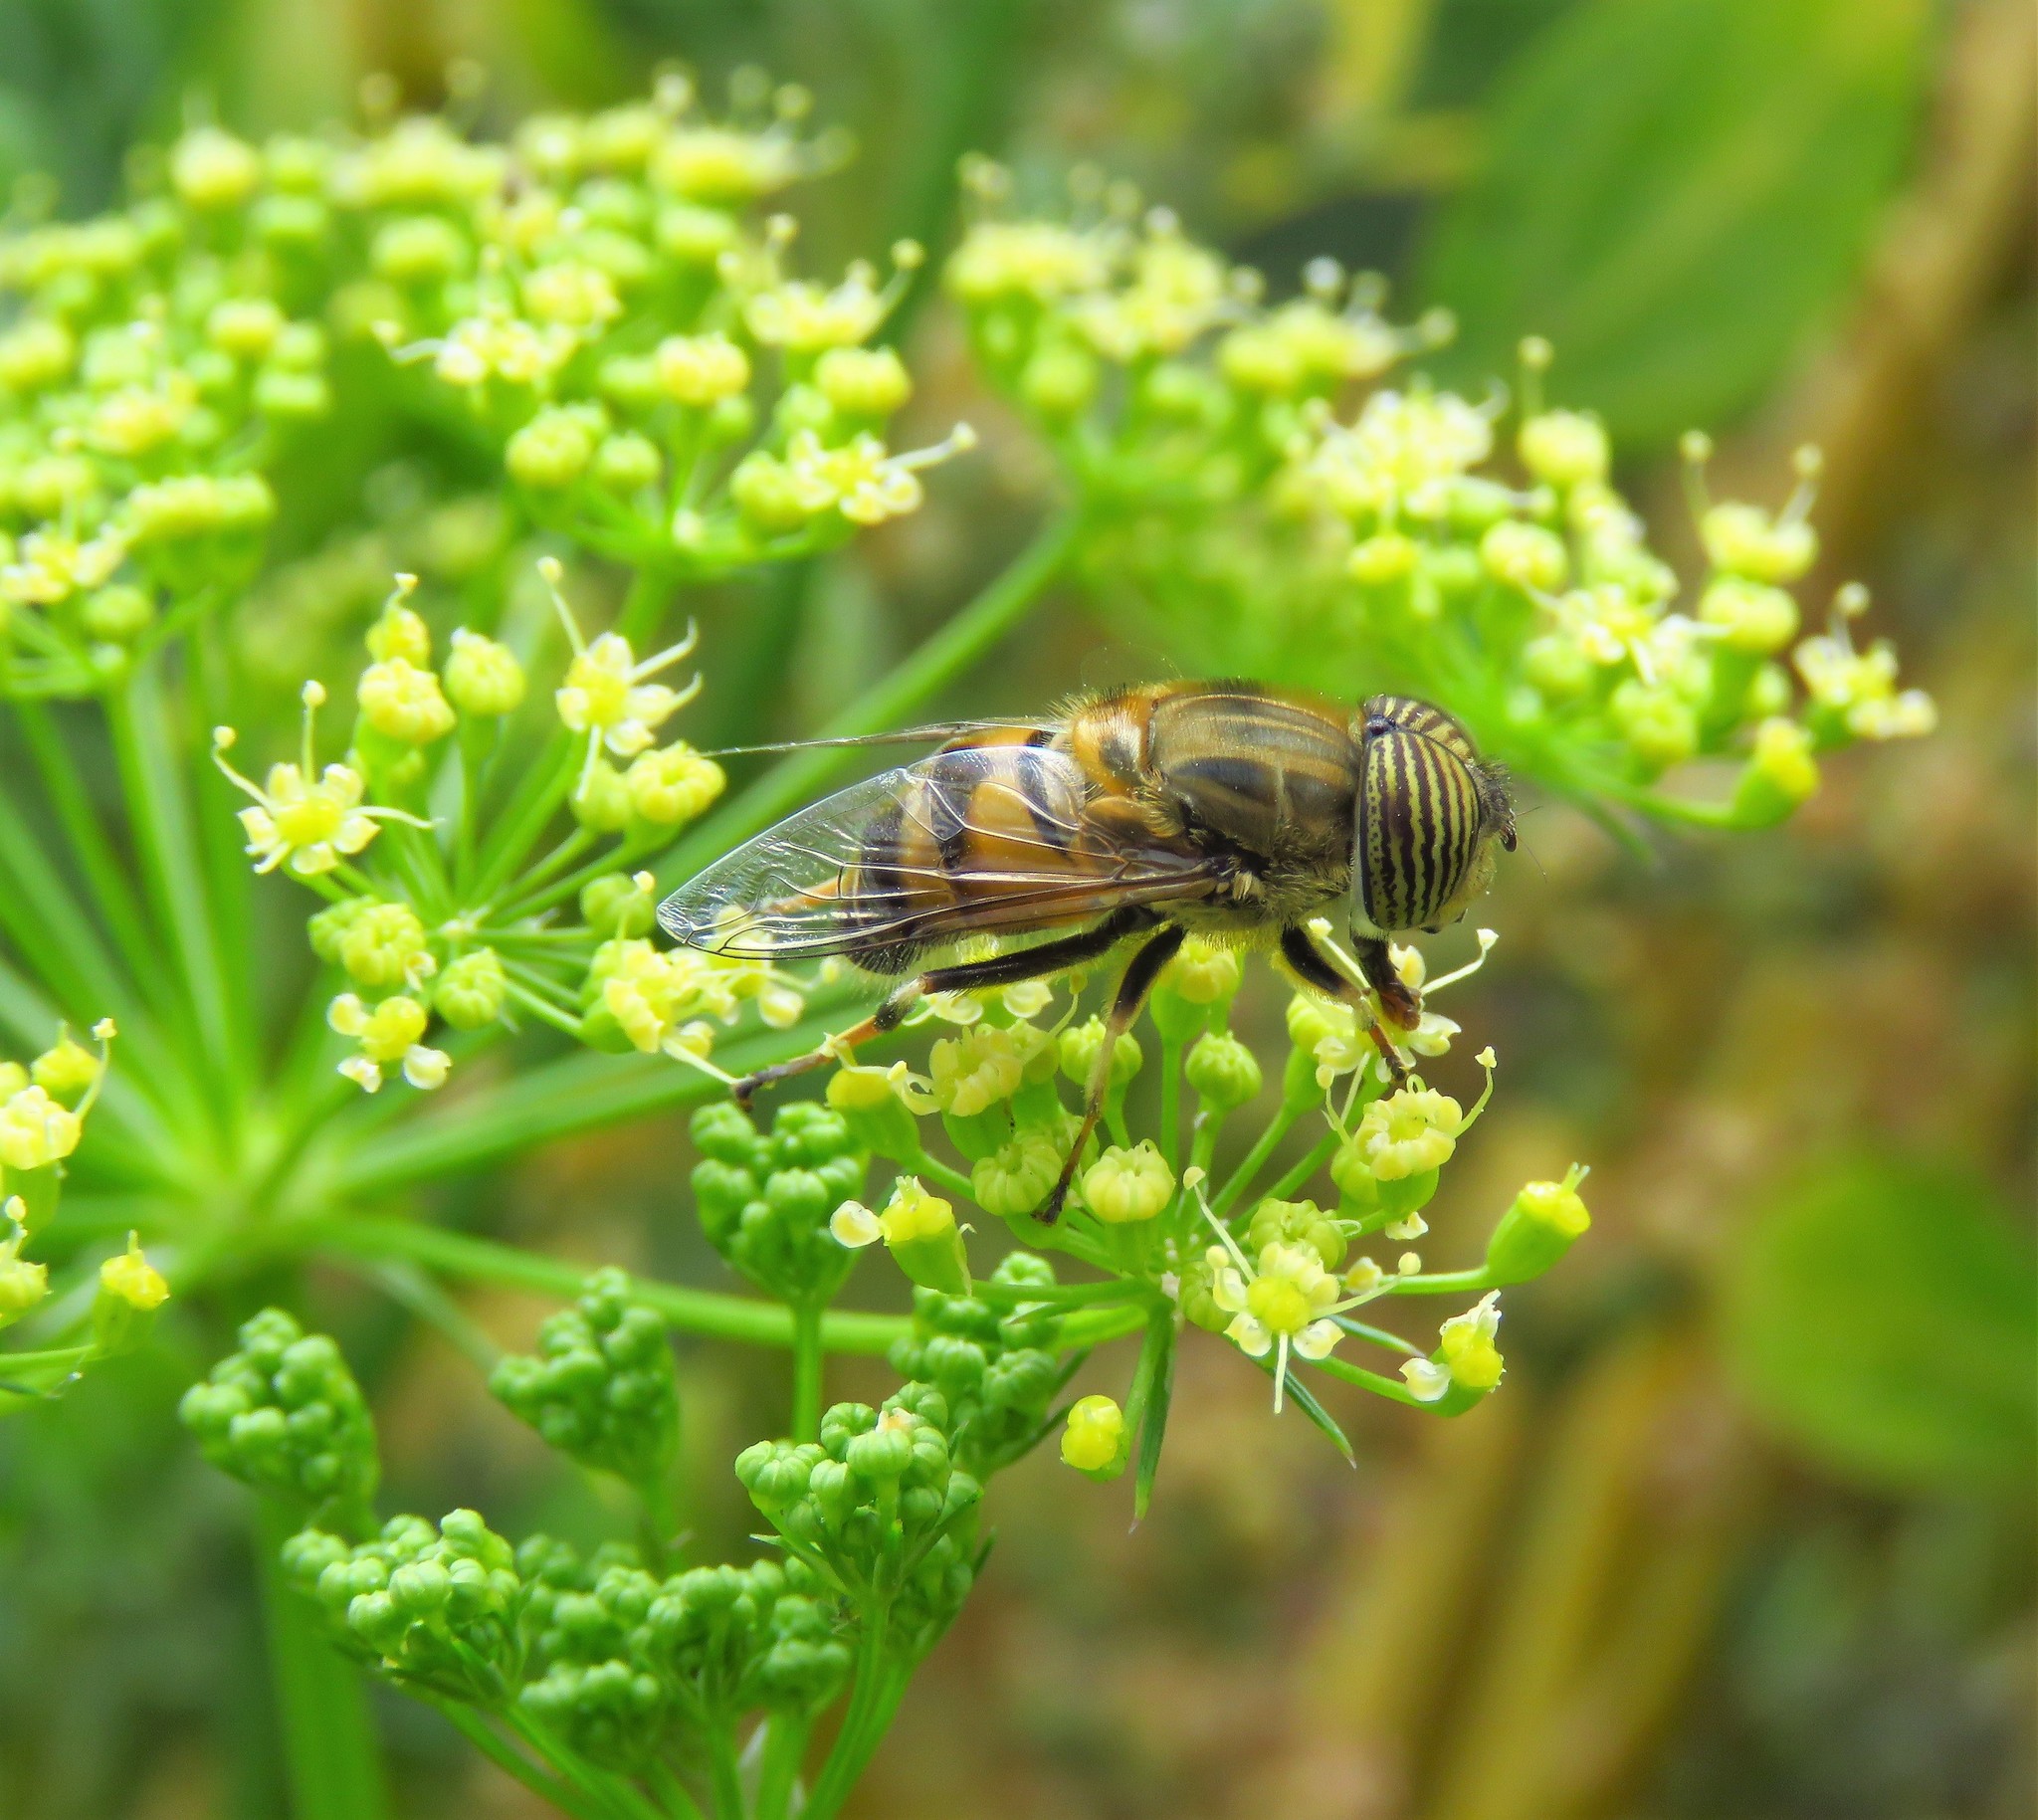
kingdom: Animalia
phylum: Arthropoda
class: Insecta
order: Diptera
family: Syrphidae
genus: Eristalinus
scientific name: Eristalinus taeniops
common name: Syrphid fly
